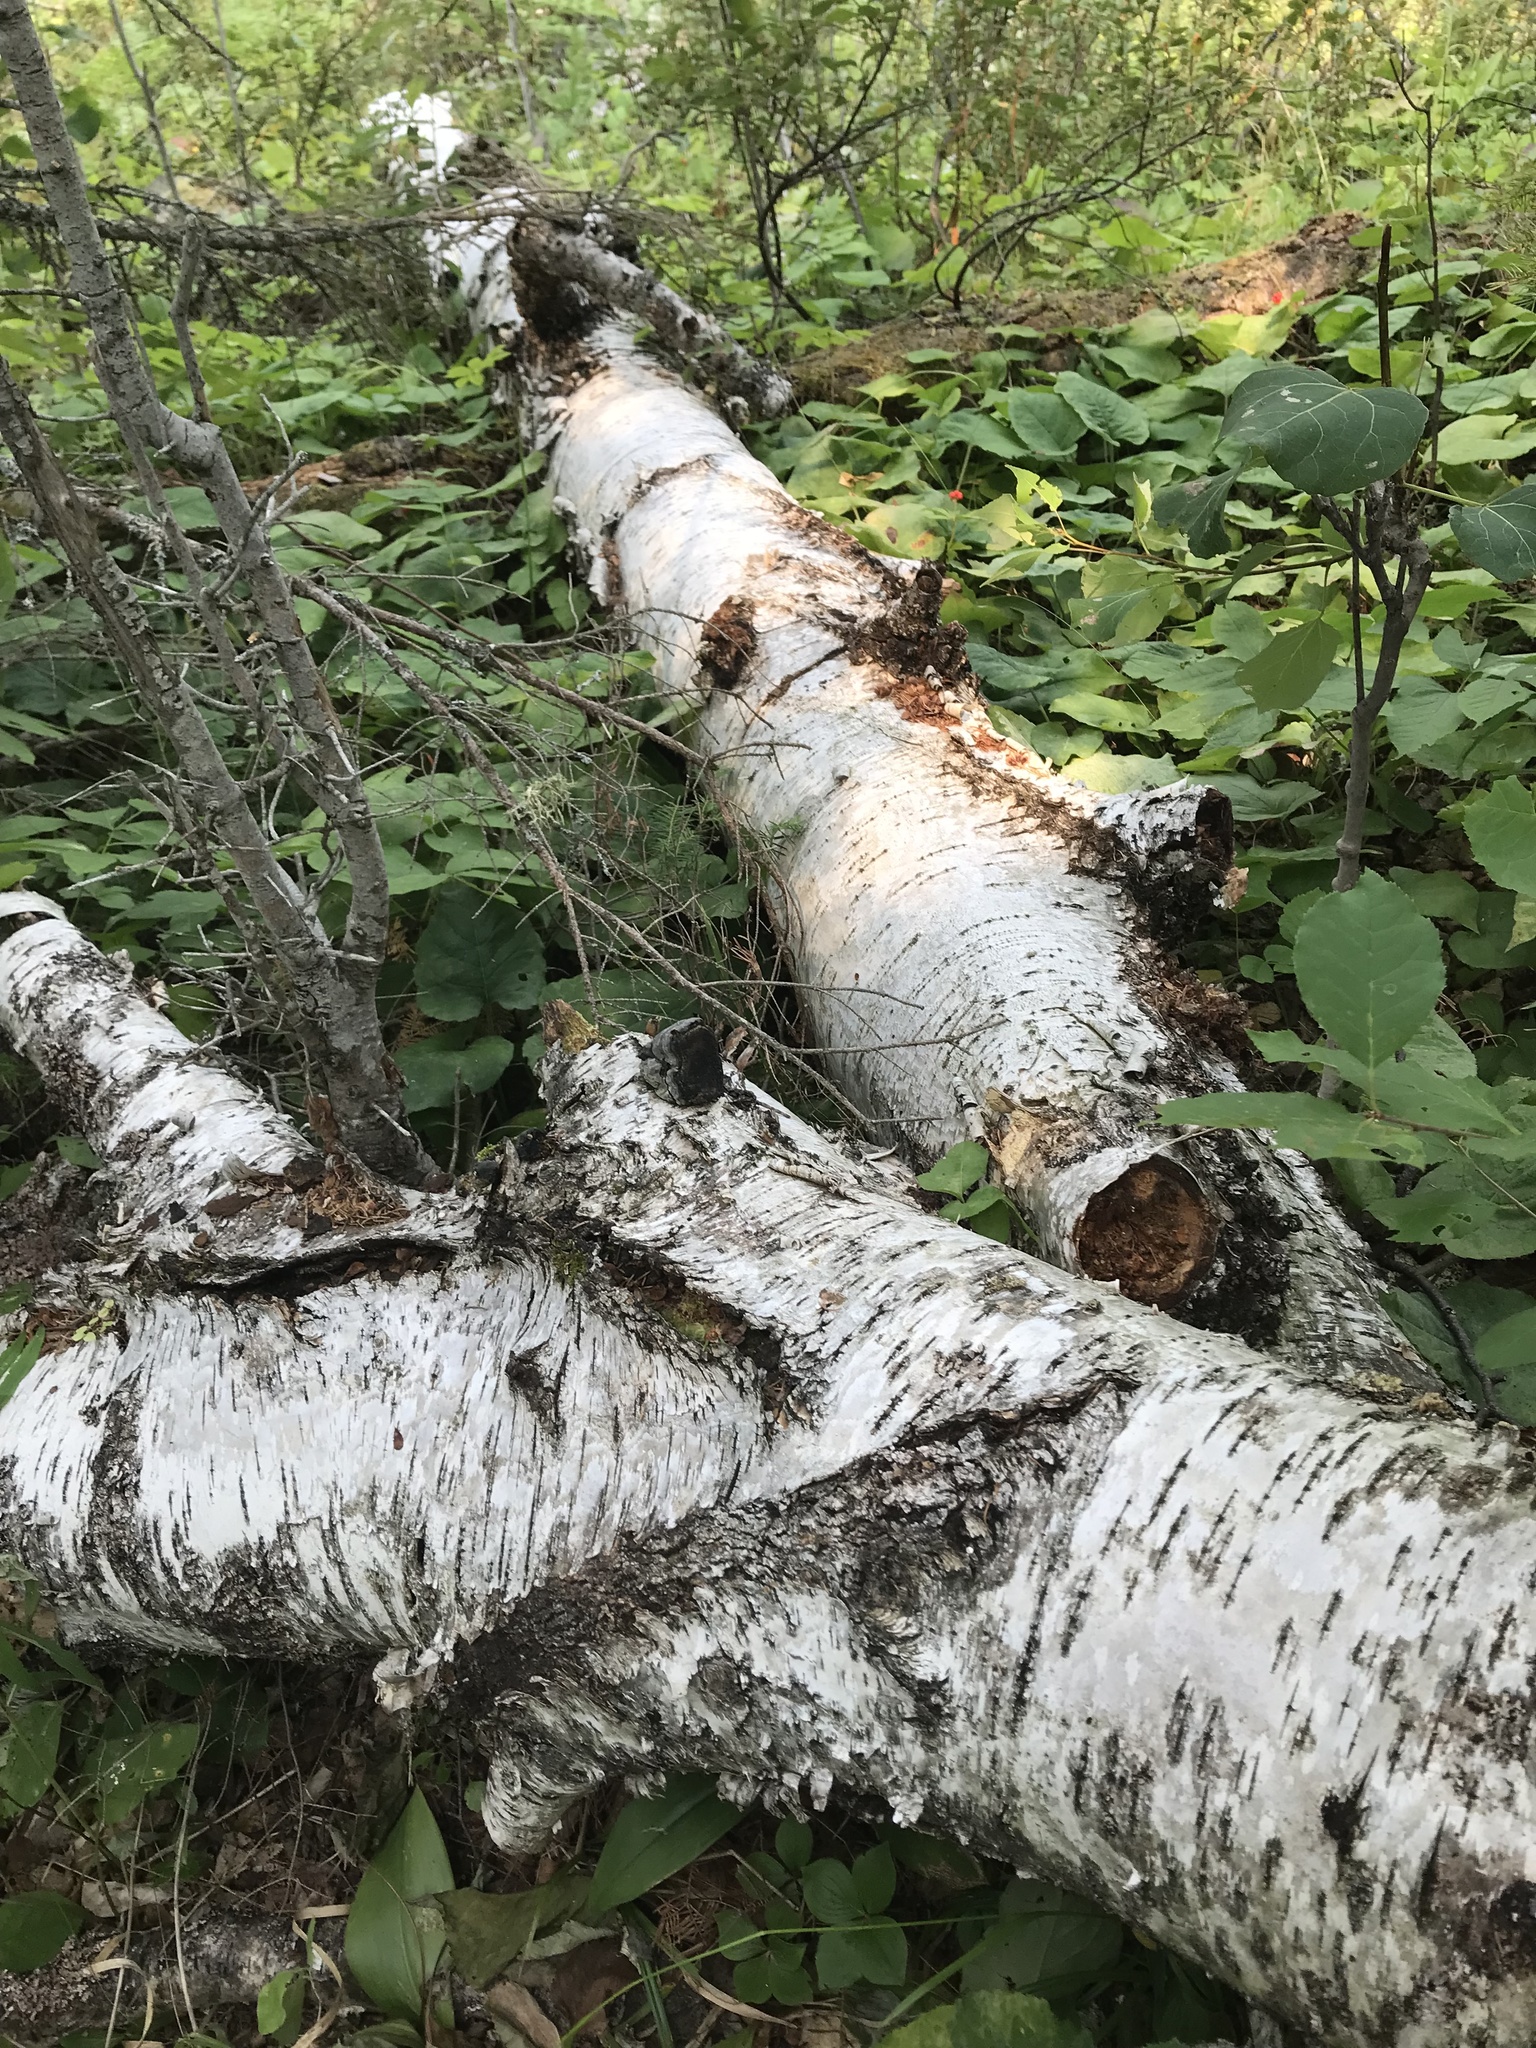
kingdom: Plantae
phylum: Tracheophyta
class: Magnoliopsida
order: Fagales
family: Betulaceae
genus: Betula
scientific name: Betula papyrifera
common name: Paper birch
